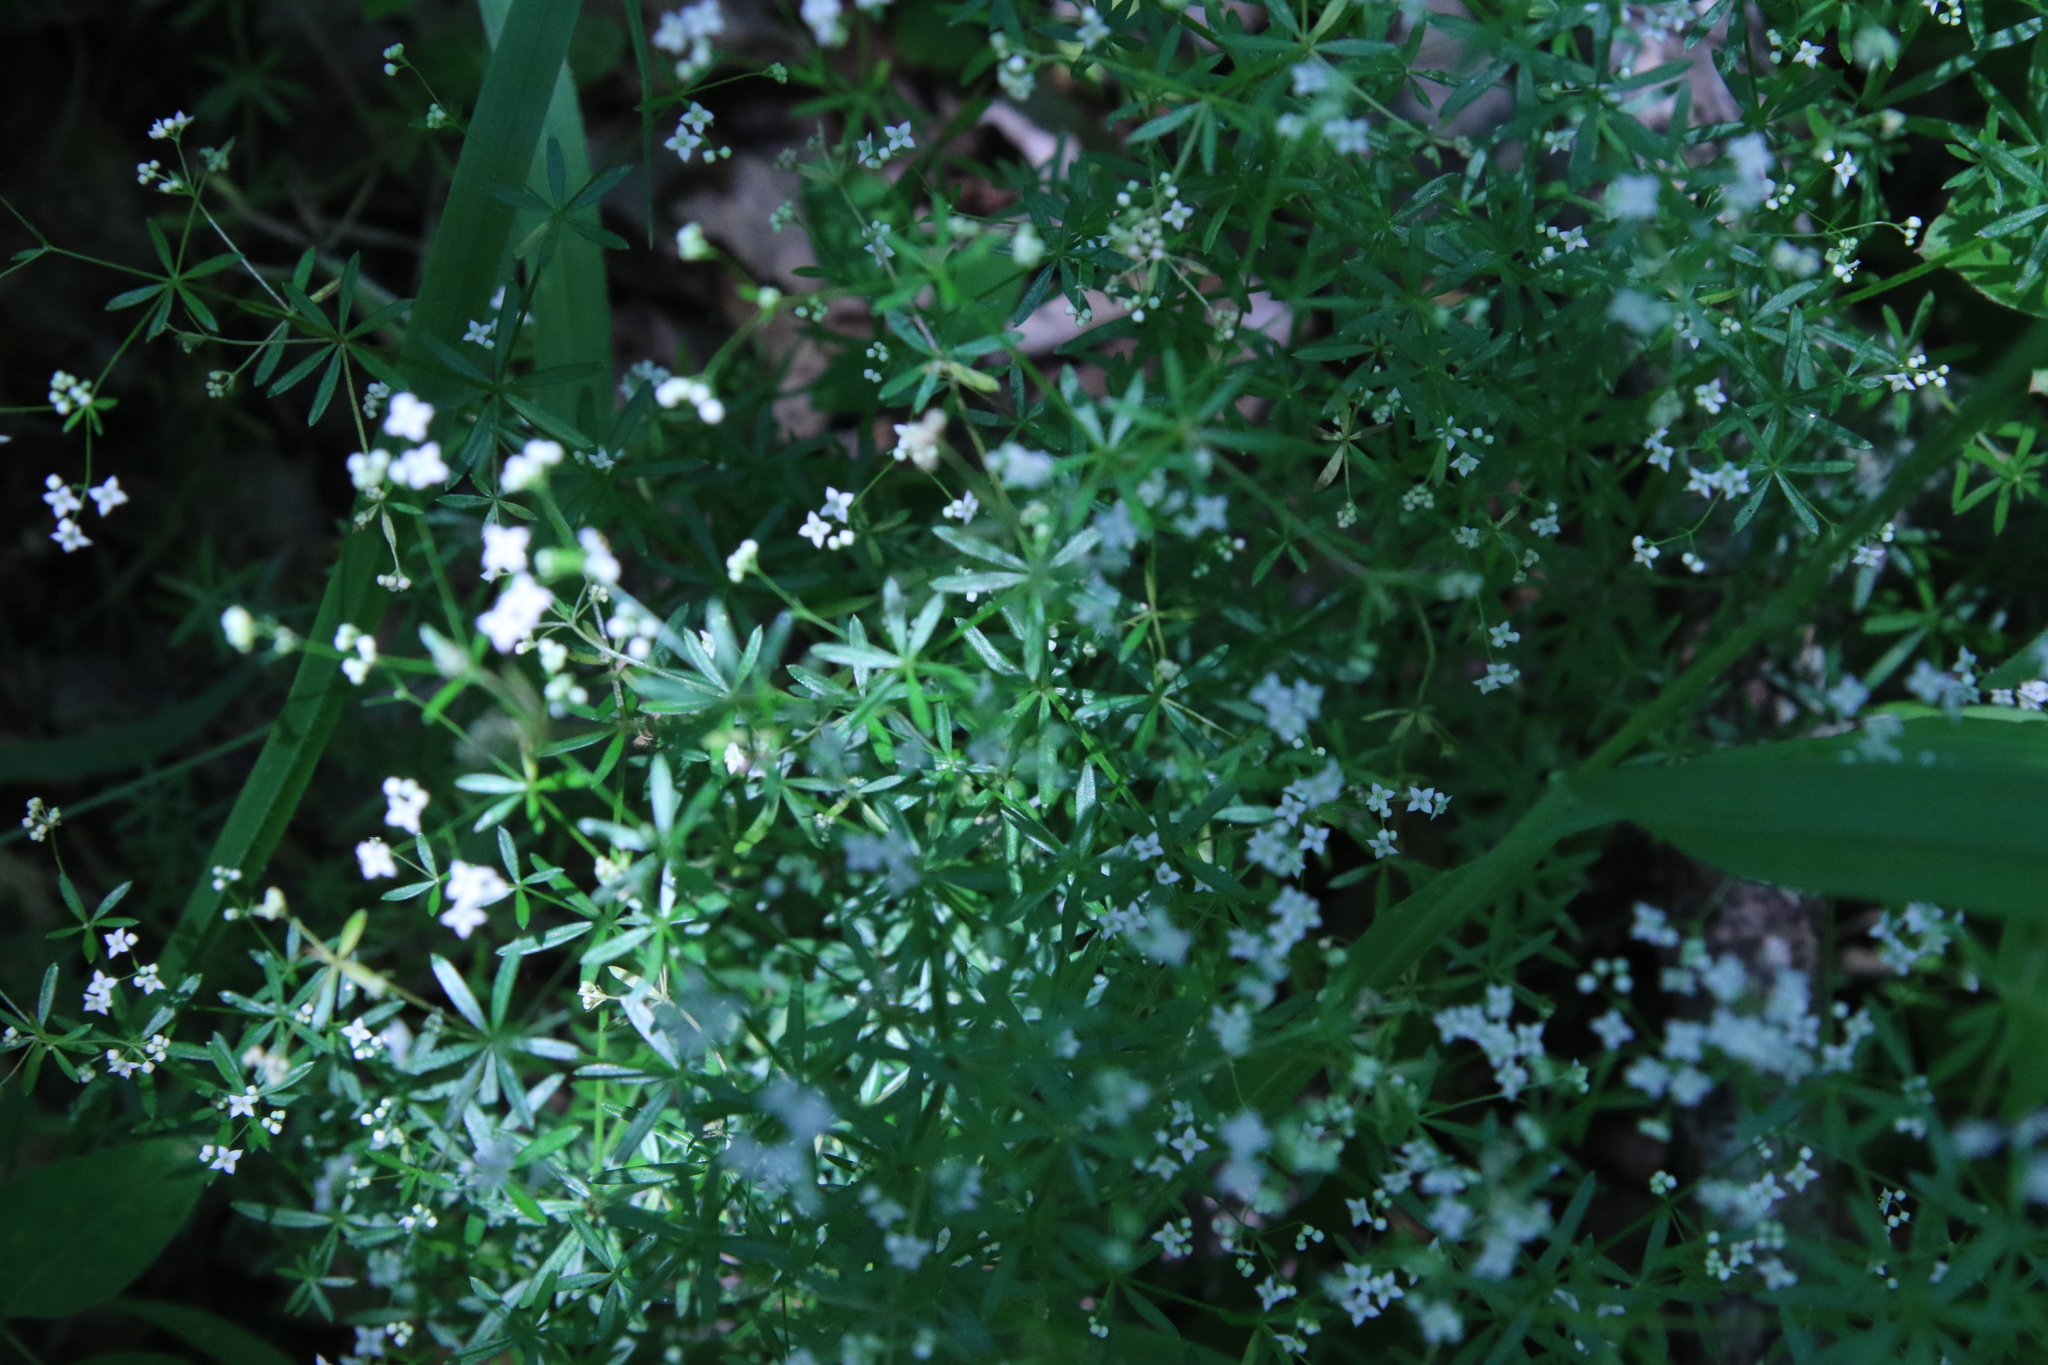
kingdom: Plantae
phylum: Tracheophyta
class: Magnoliopsida
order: Gentianales
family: Rubiaceae
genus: Galium
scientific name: Galium concinnum
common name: Shining bedstraw
